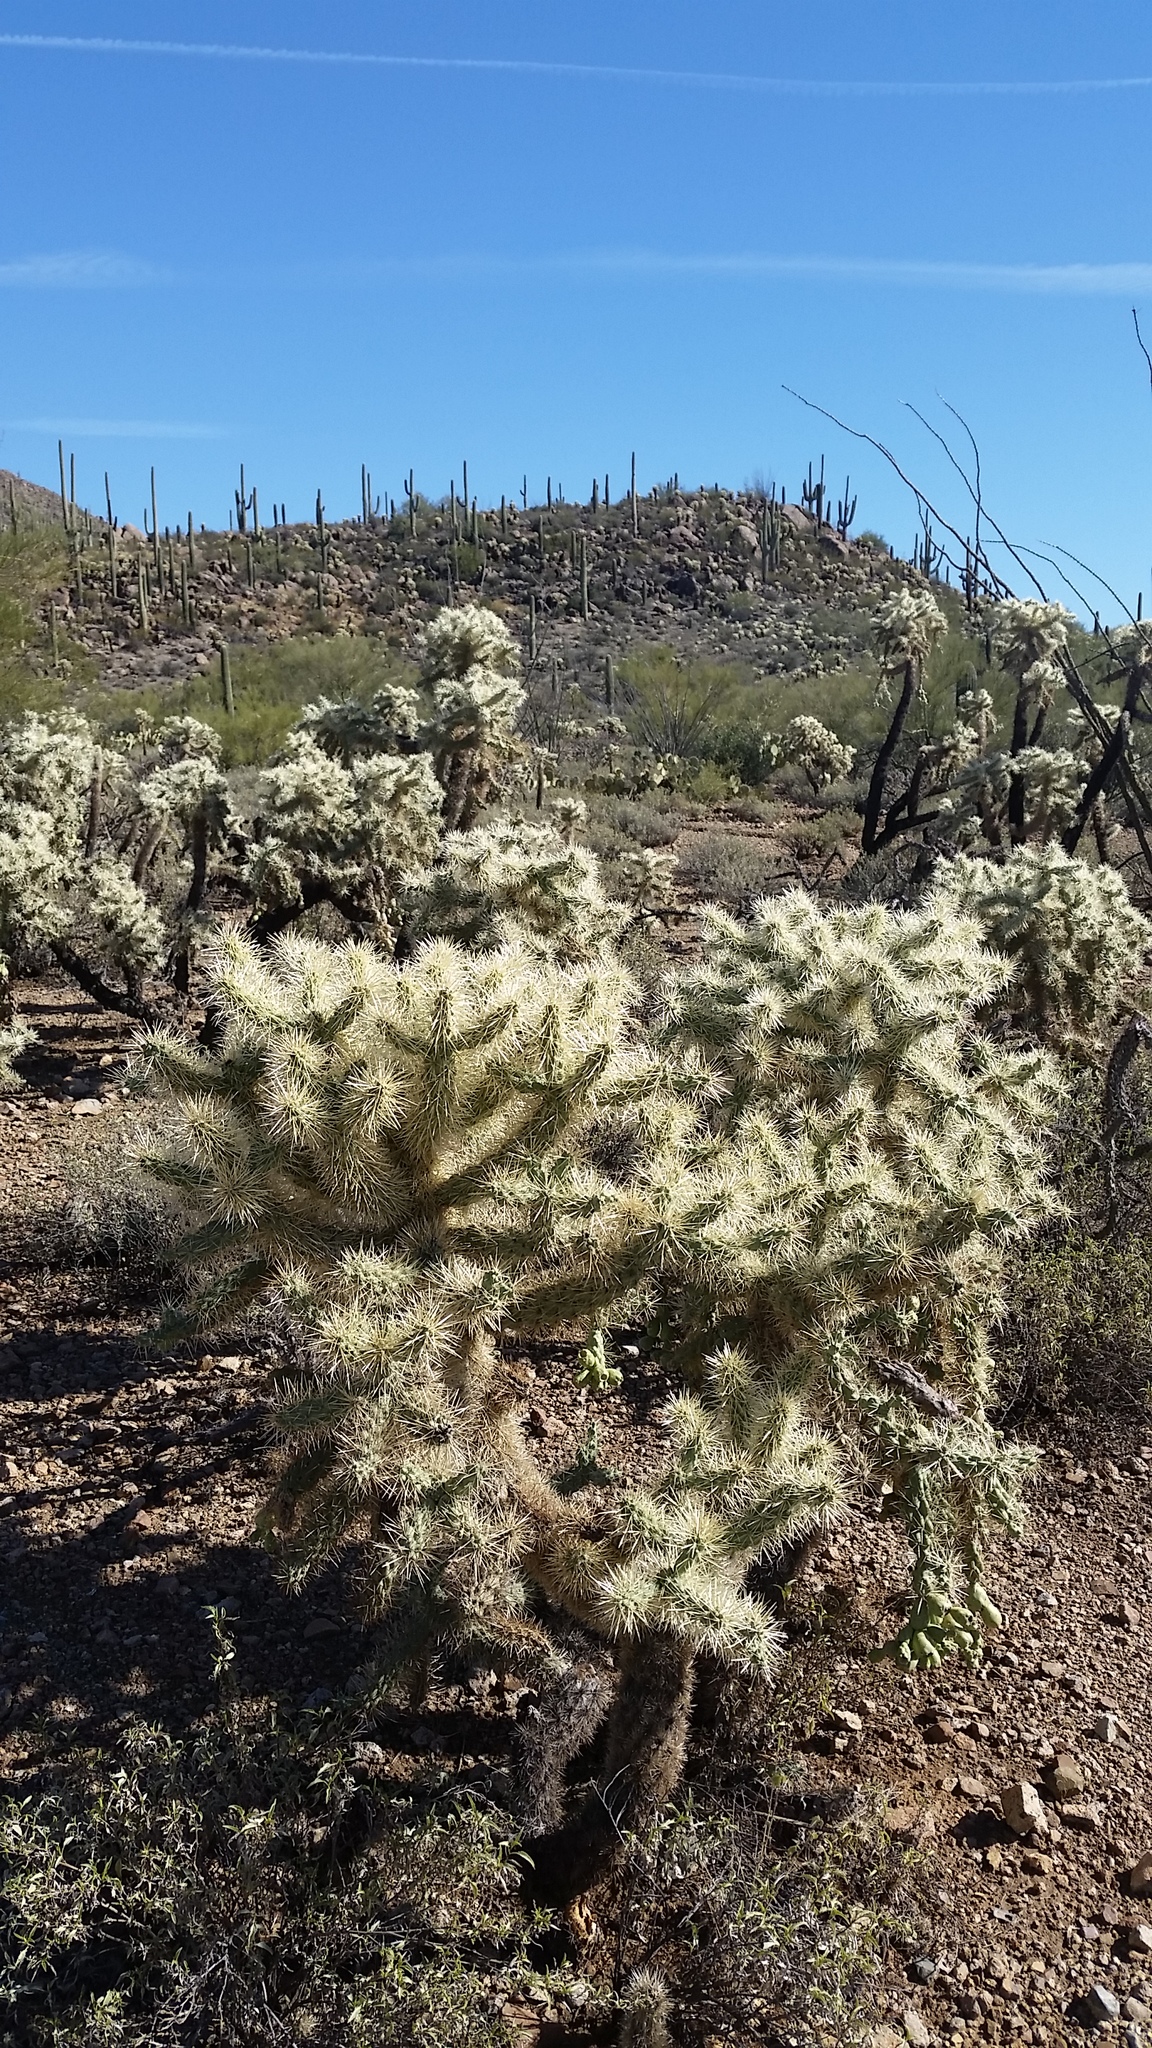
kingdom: Plantae
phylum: Tracheophyta
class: Magnoliopsida
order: Caryophyllales
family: Cactaceae
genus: Cylindropuntia
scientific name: Cylindropuntia fulgida
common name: Jumping cholla
